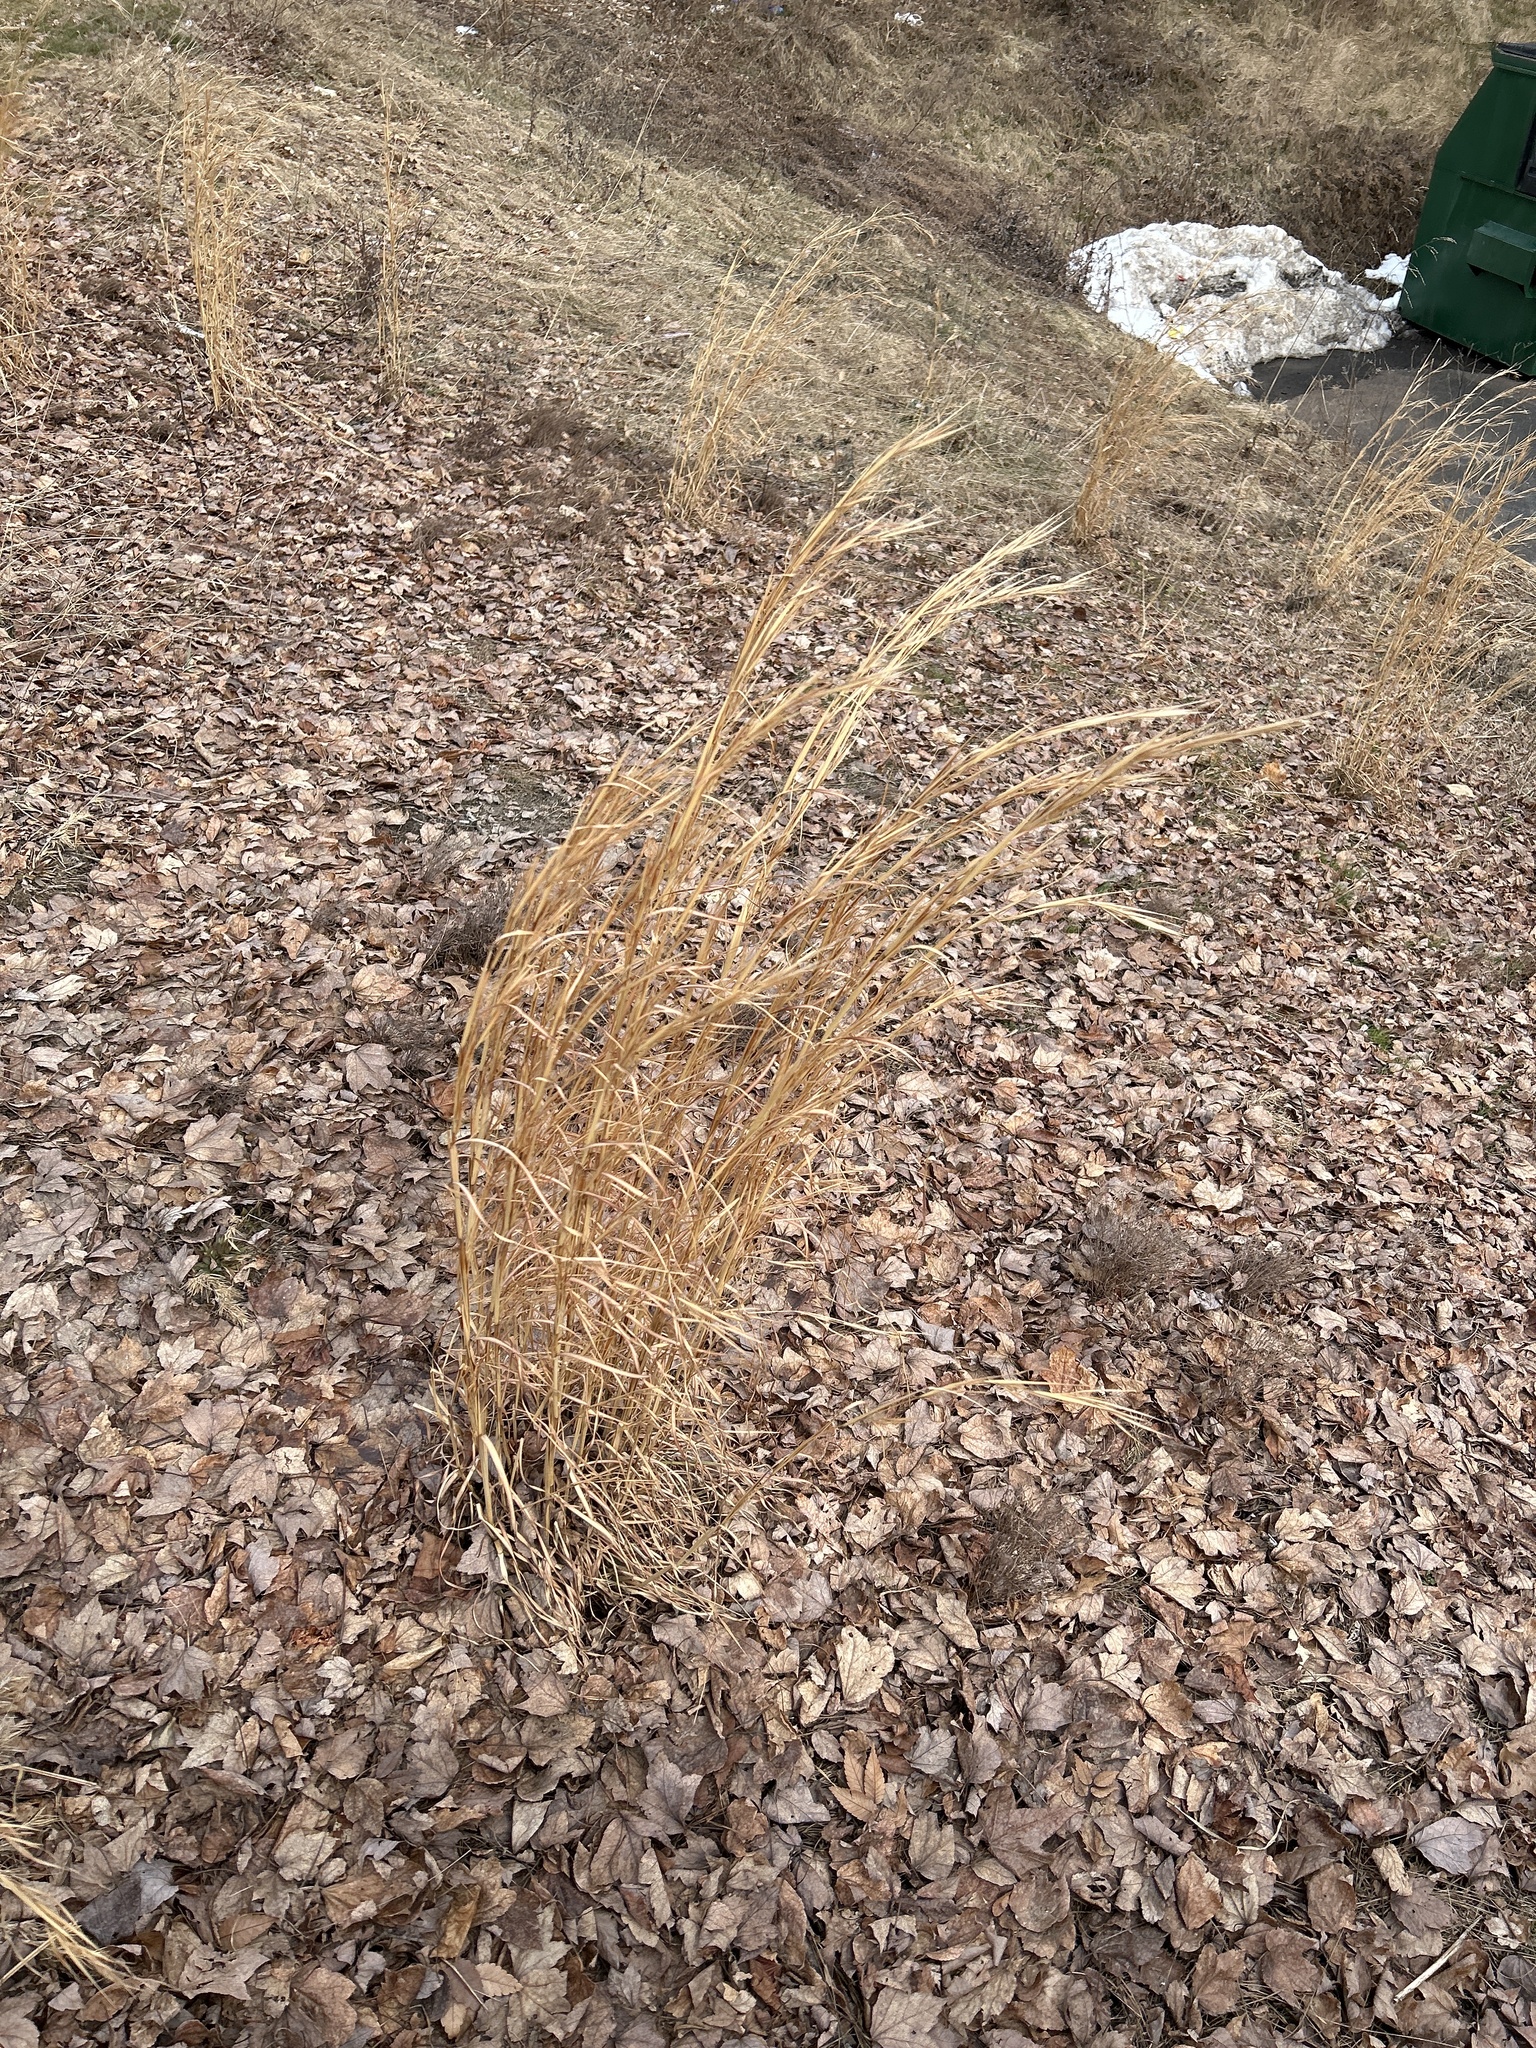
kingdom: Plantae
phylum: Tracheophyta
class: Liliopsida
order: Poales
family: Poaceae
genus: Andropogon
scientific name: Andropogon virginicus
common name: Broomsedge bluestem
